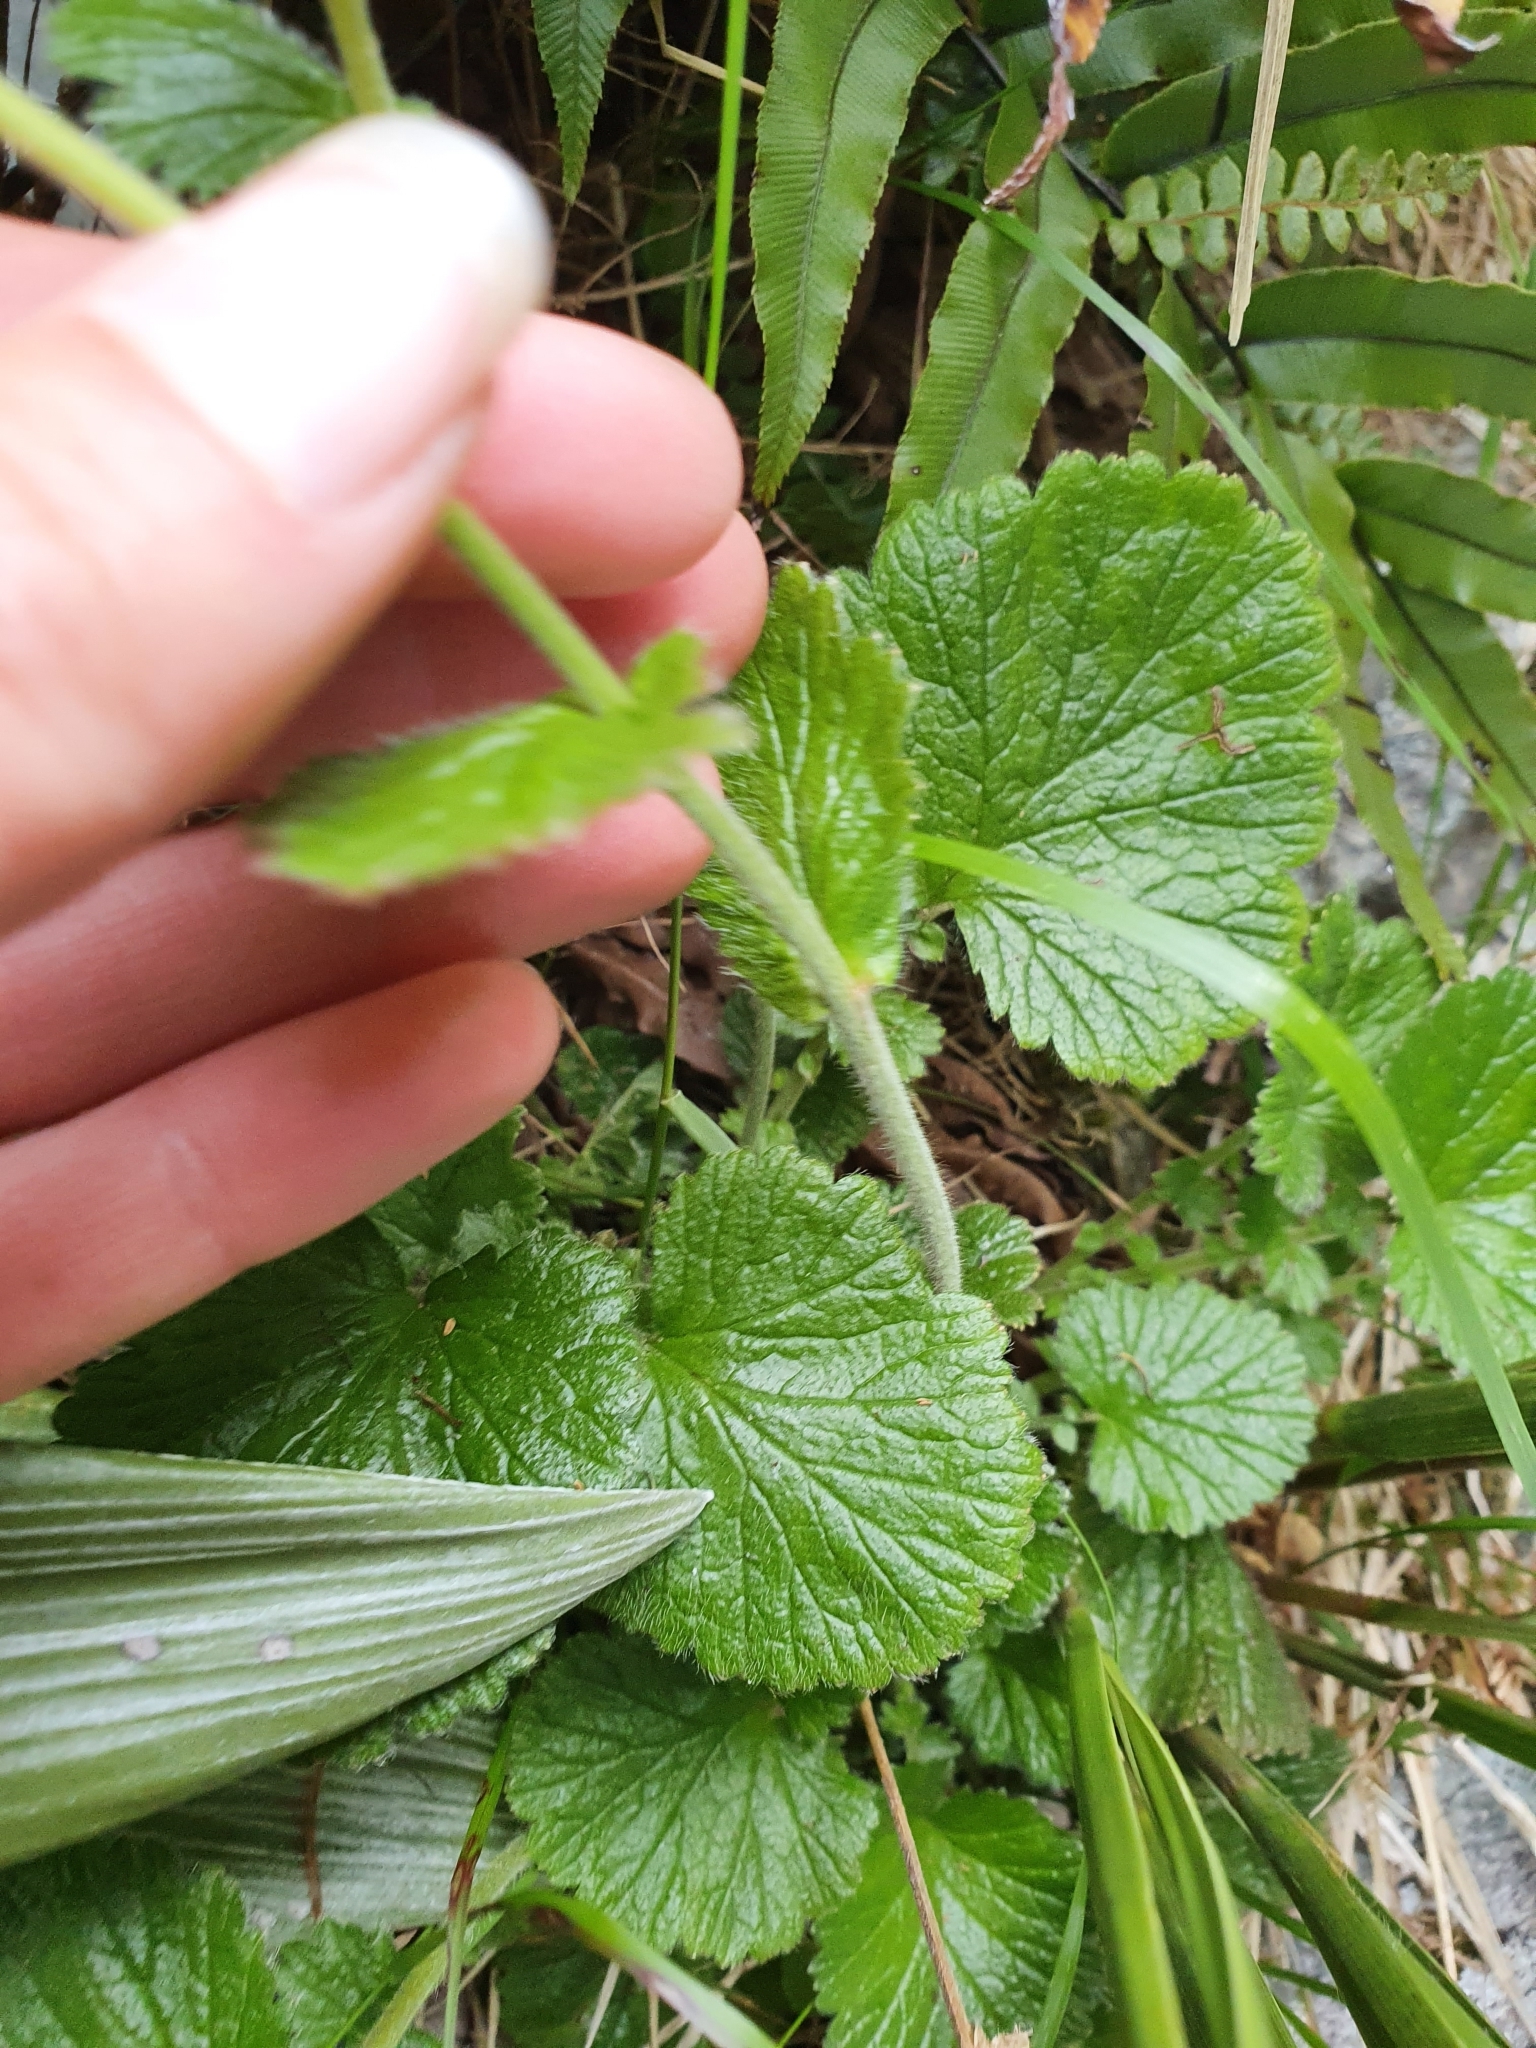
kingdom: Plantae
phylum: Tracheophyta
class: Magnoliopsida
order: Rosales
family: Rosaceae
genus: Geum
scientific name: Geum cockaynei
